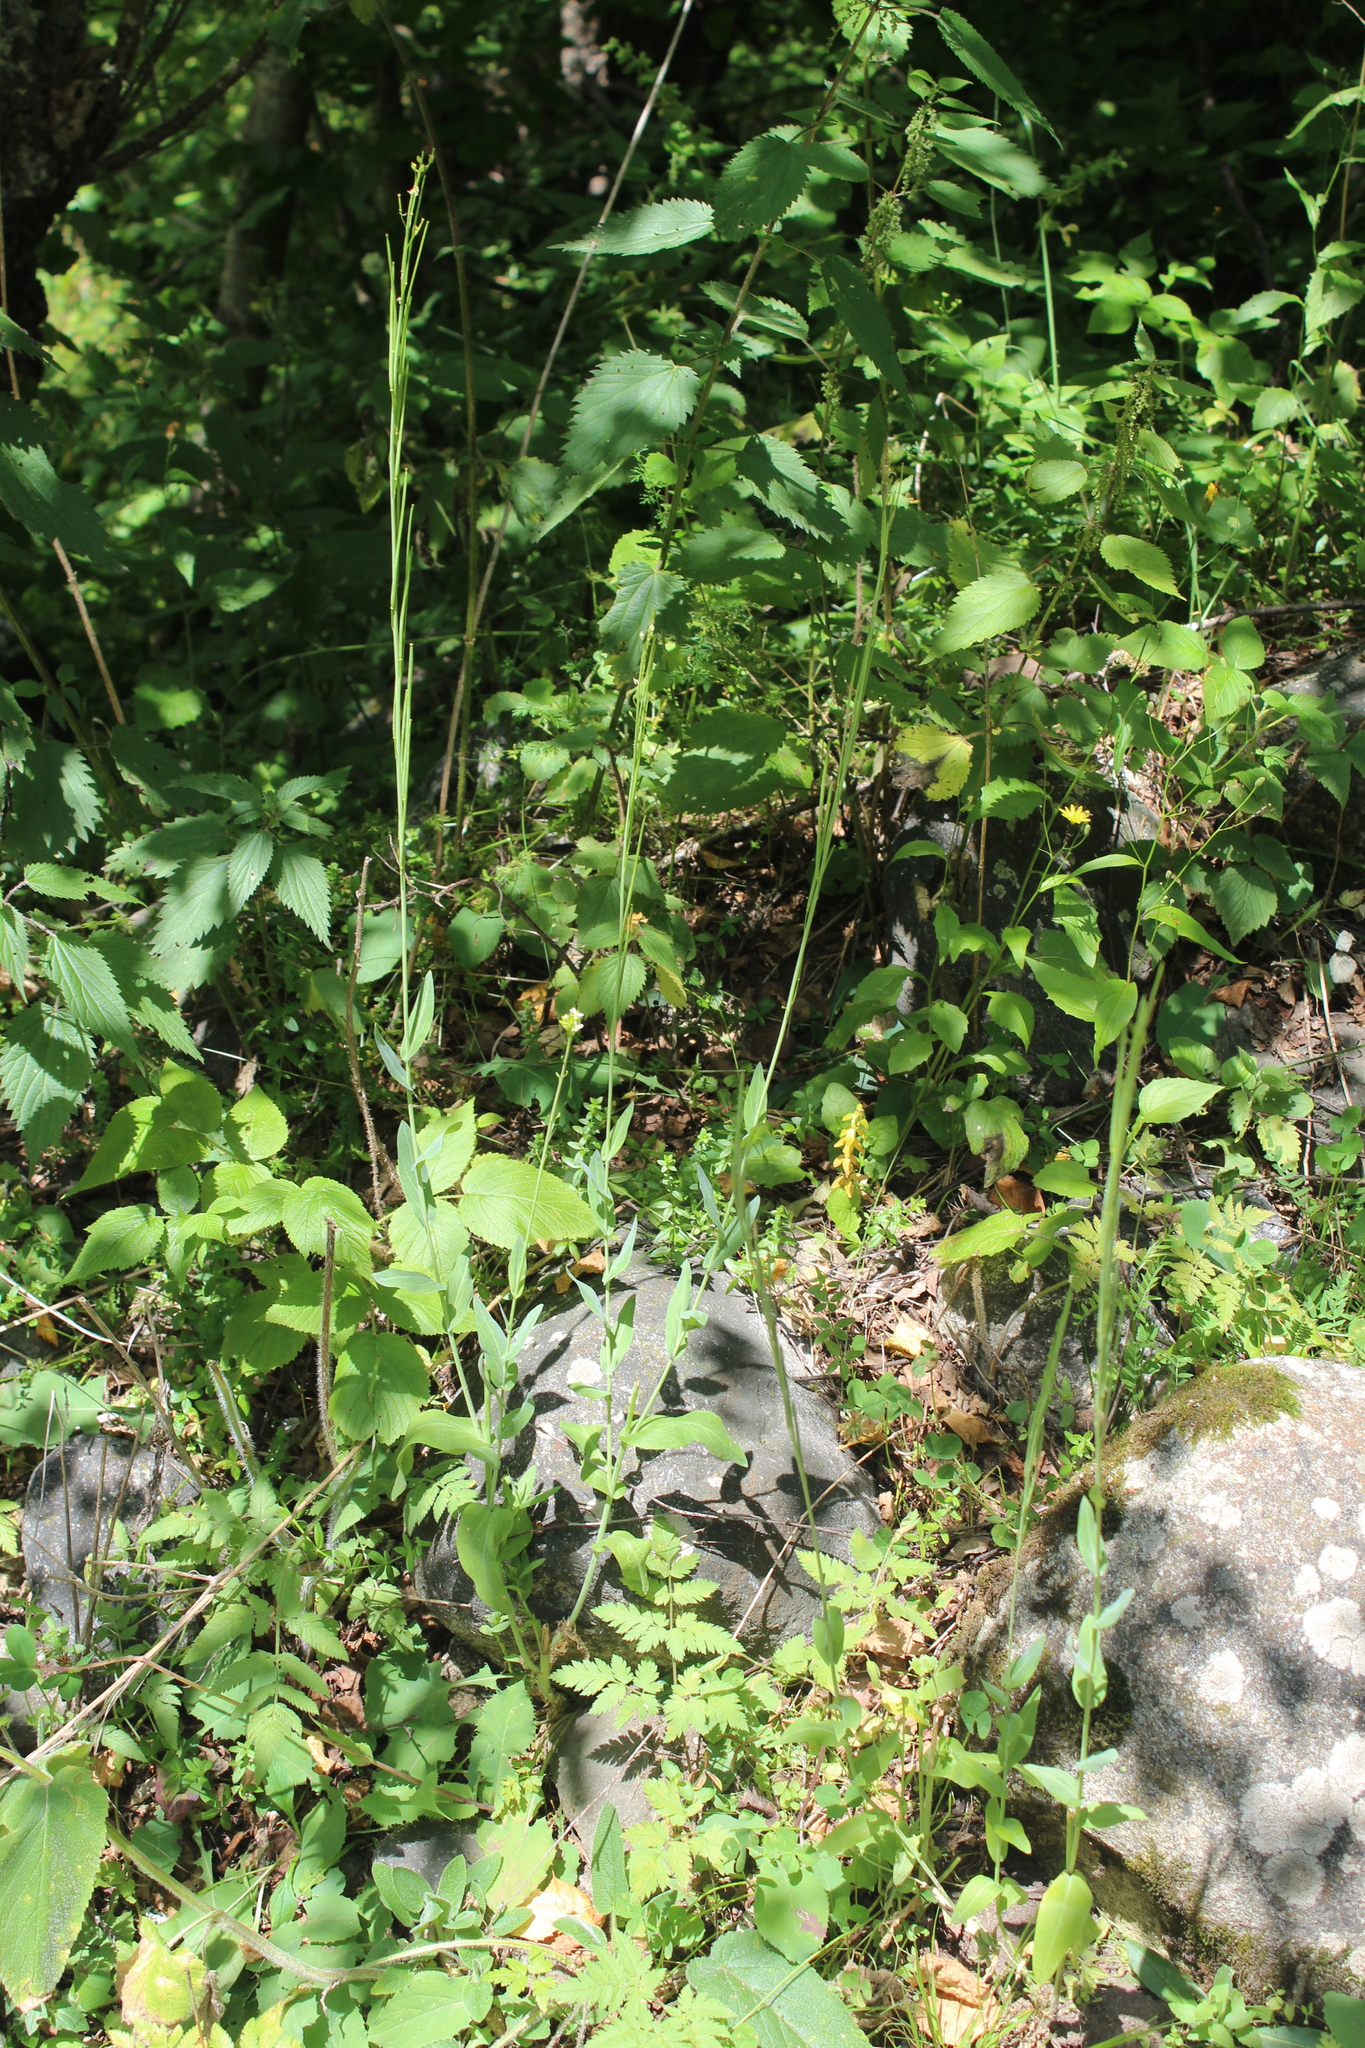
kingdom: Plantae
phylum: Tracheophyta
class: Magnoliopsida
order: Brassicales
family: Brassicaceae
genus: Turritis
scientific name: Turritis glabra
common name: Tower rockcress
